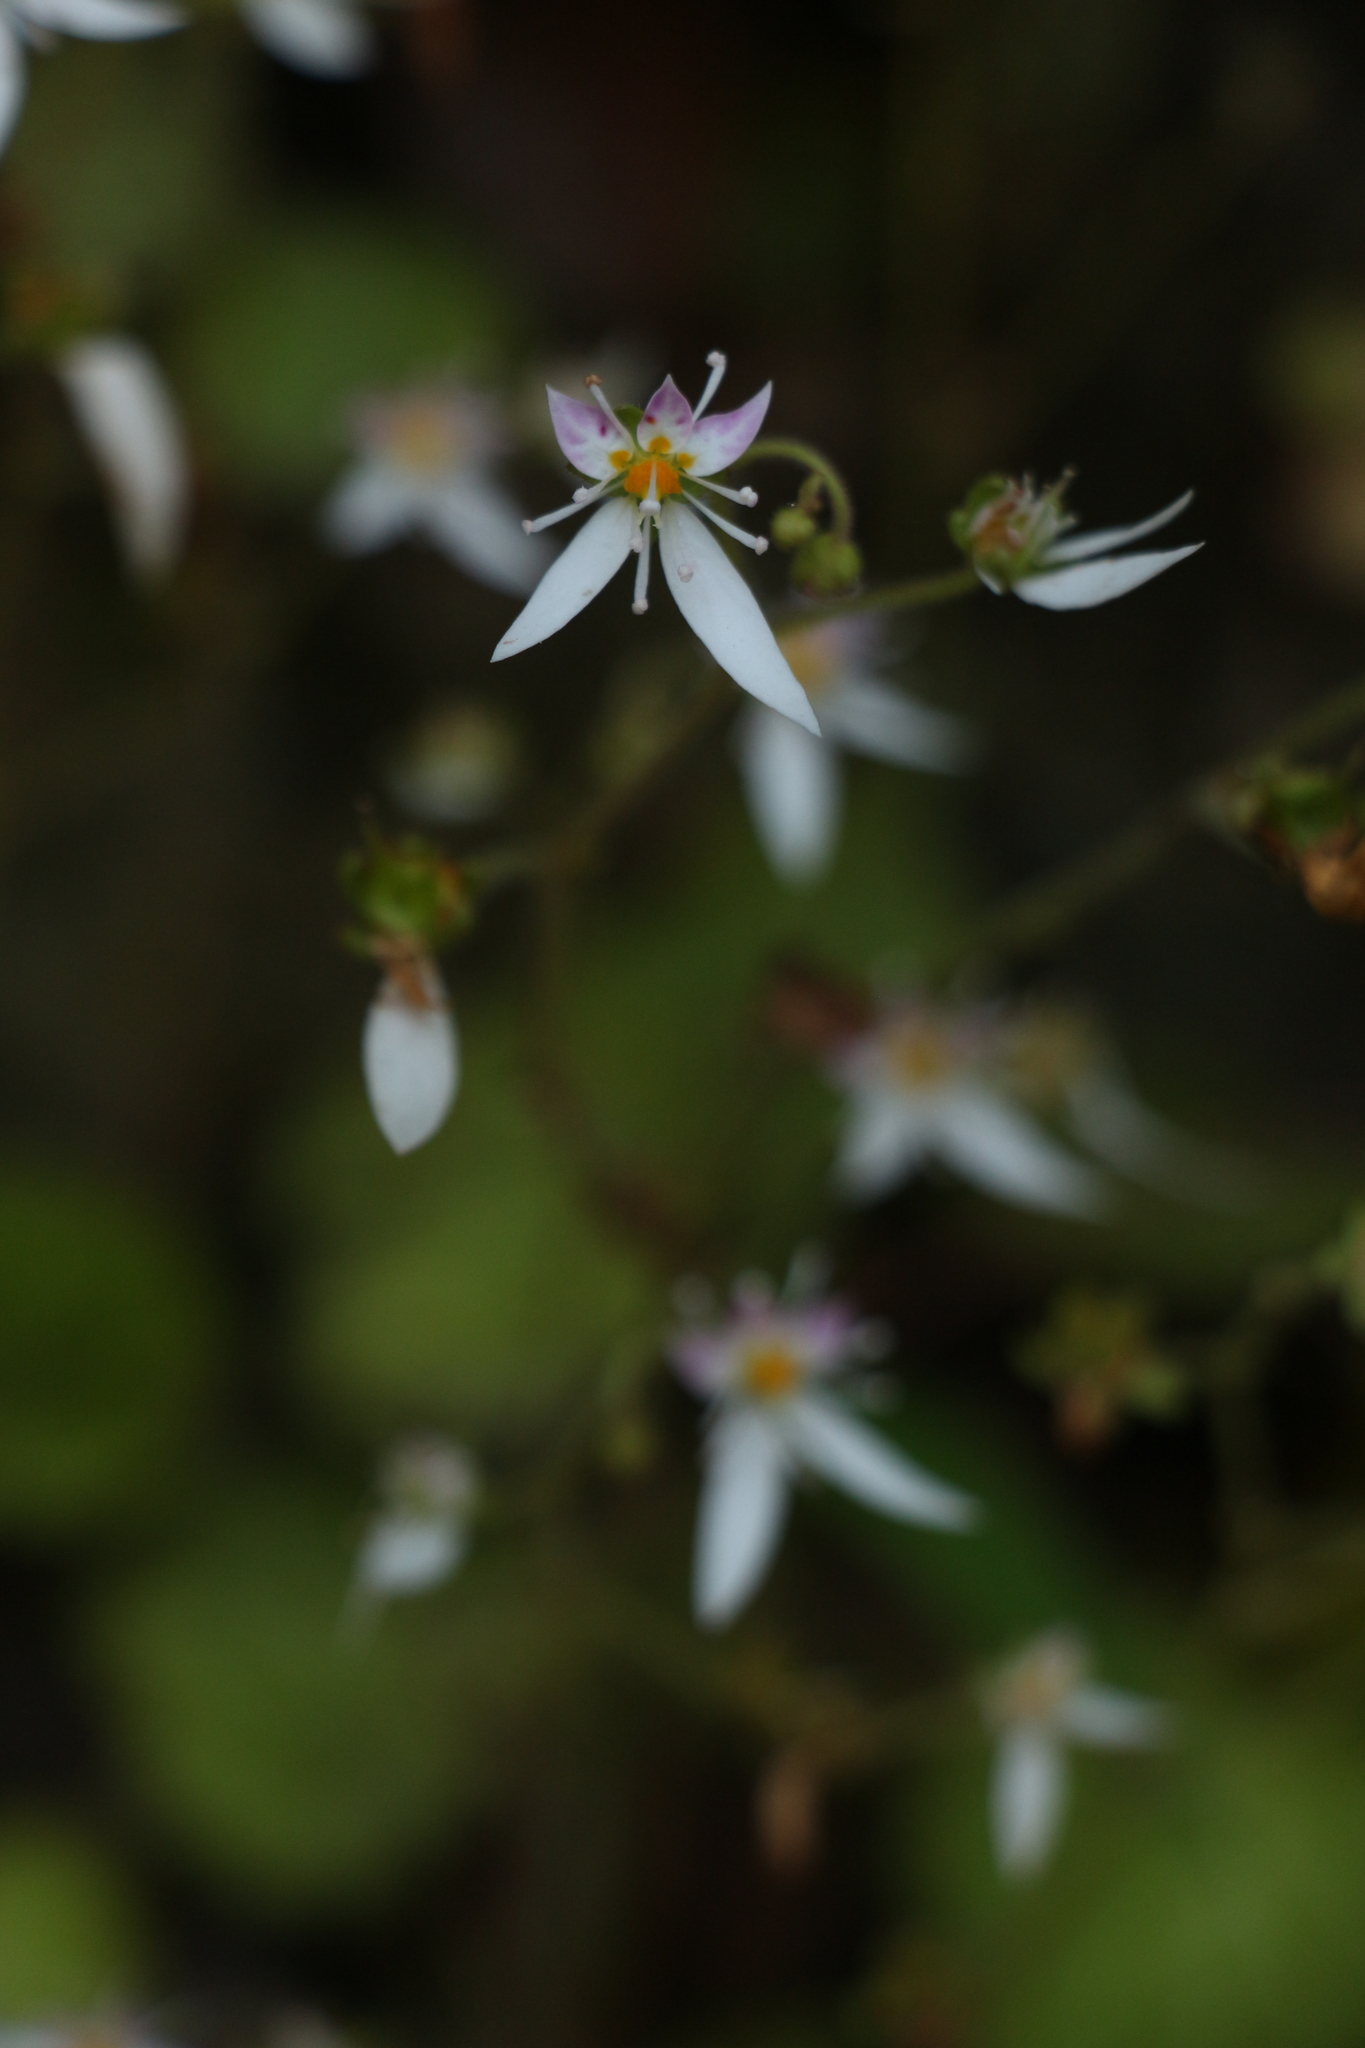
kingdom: Plantae
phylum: Tracheophyta
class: Magnoliopsida
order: Saxifragales
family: Saxifragaceae
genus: Saxifraga
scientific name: Saxifraga stolonifera
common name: Creeping saxifrage
